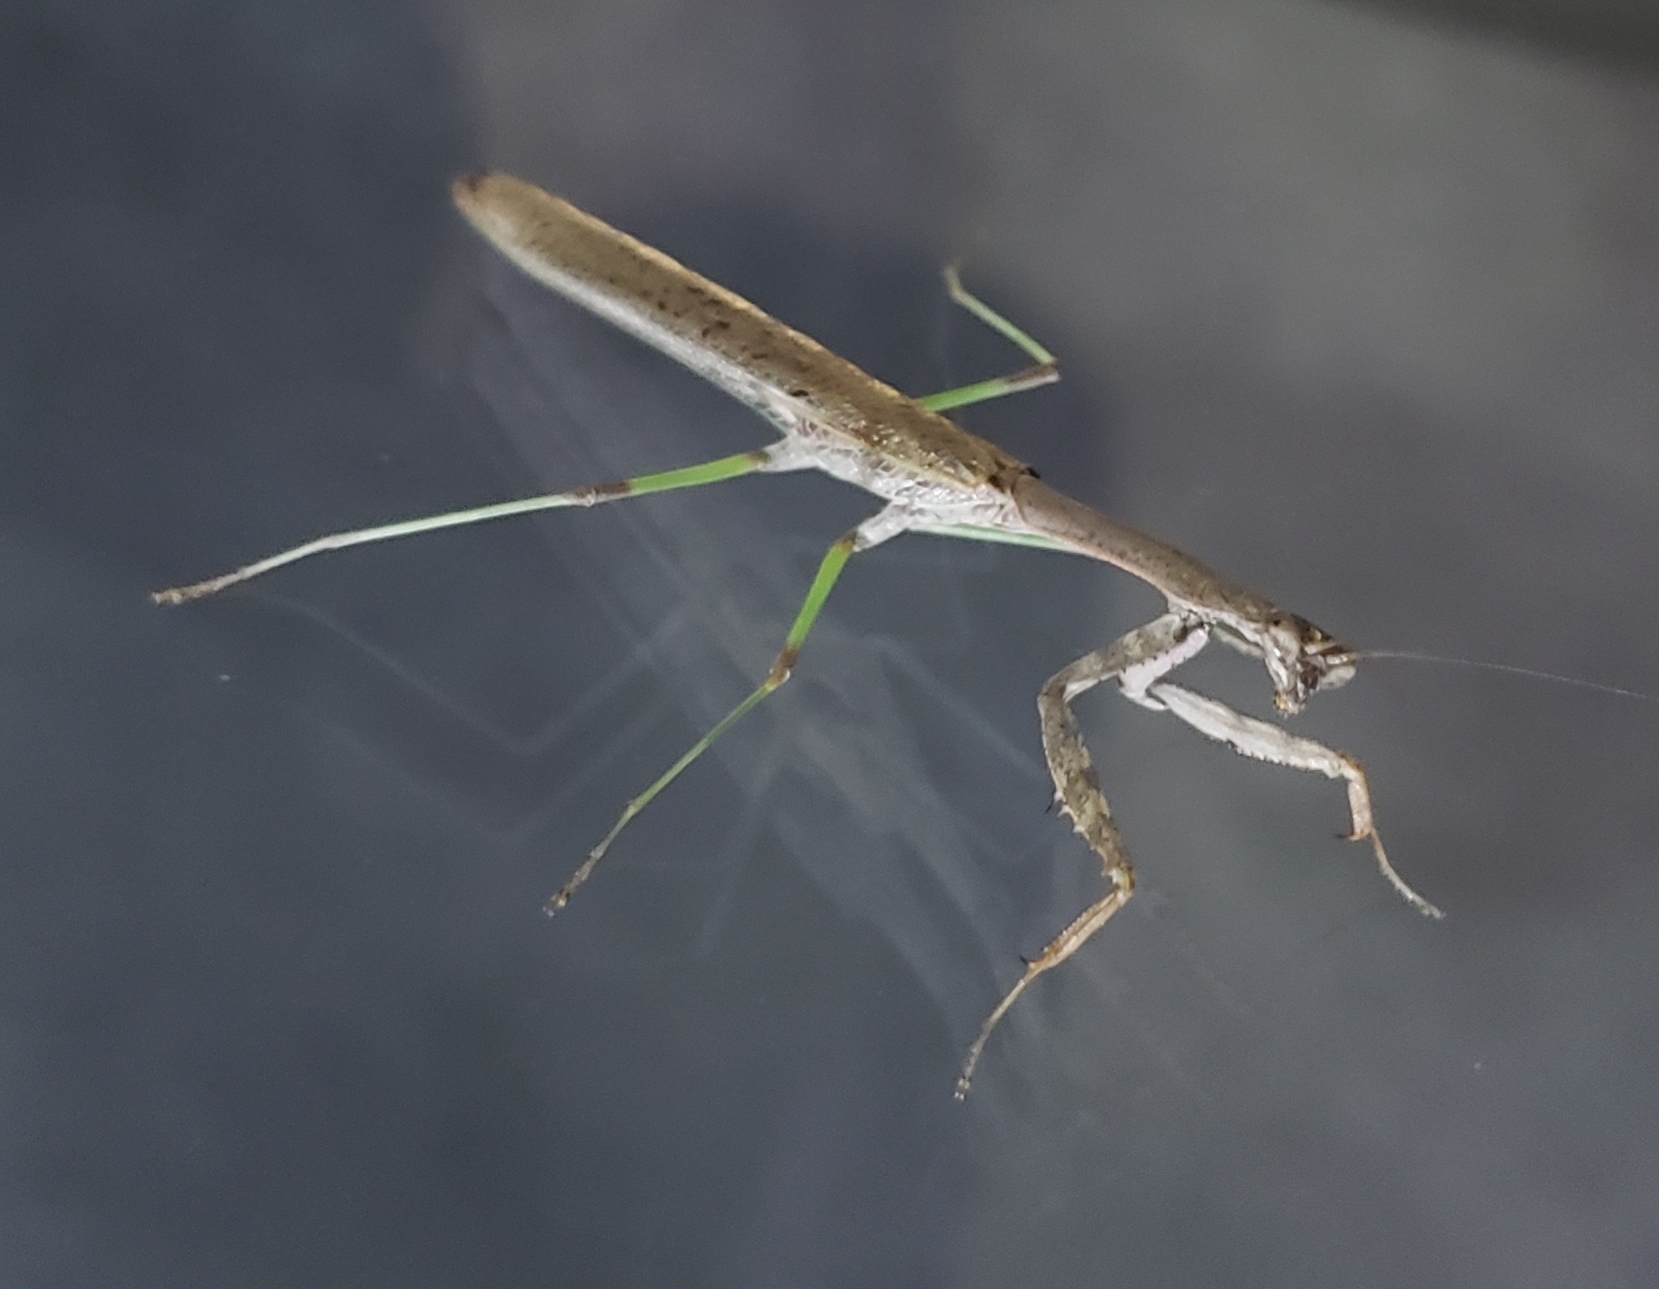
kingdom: Animalia
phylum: Arthropoda
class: Insecta
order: Mantodea
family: Mantidae
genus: Stagmomantis
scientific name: Stagmomantis carolina
